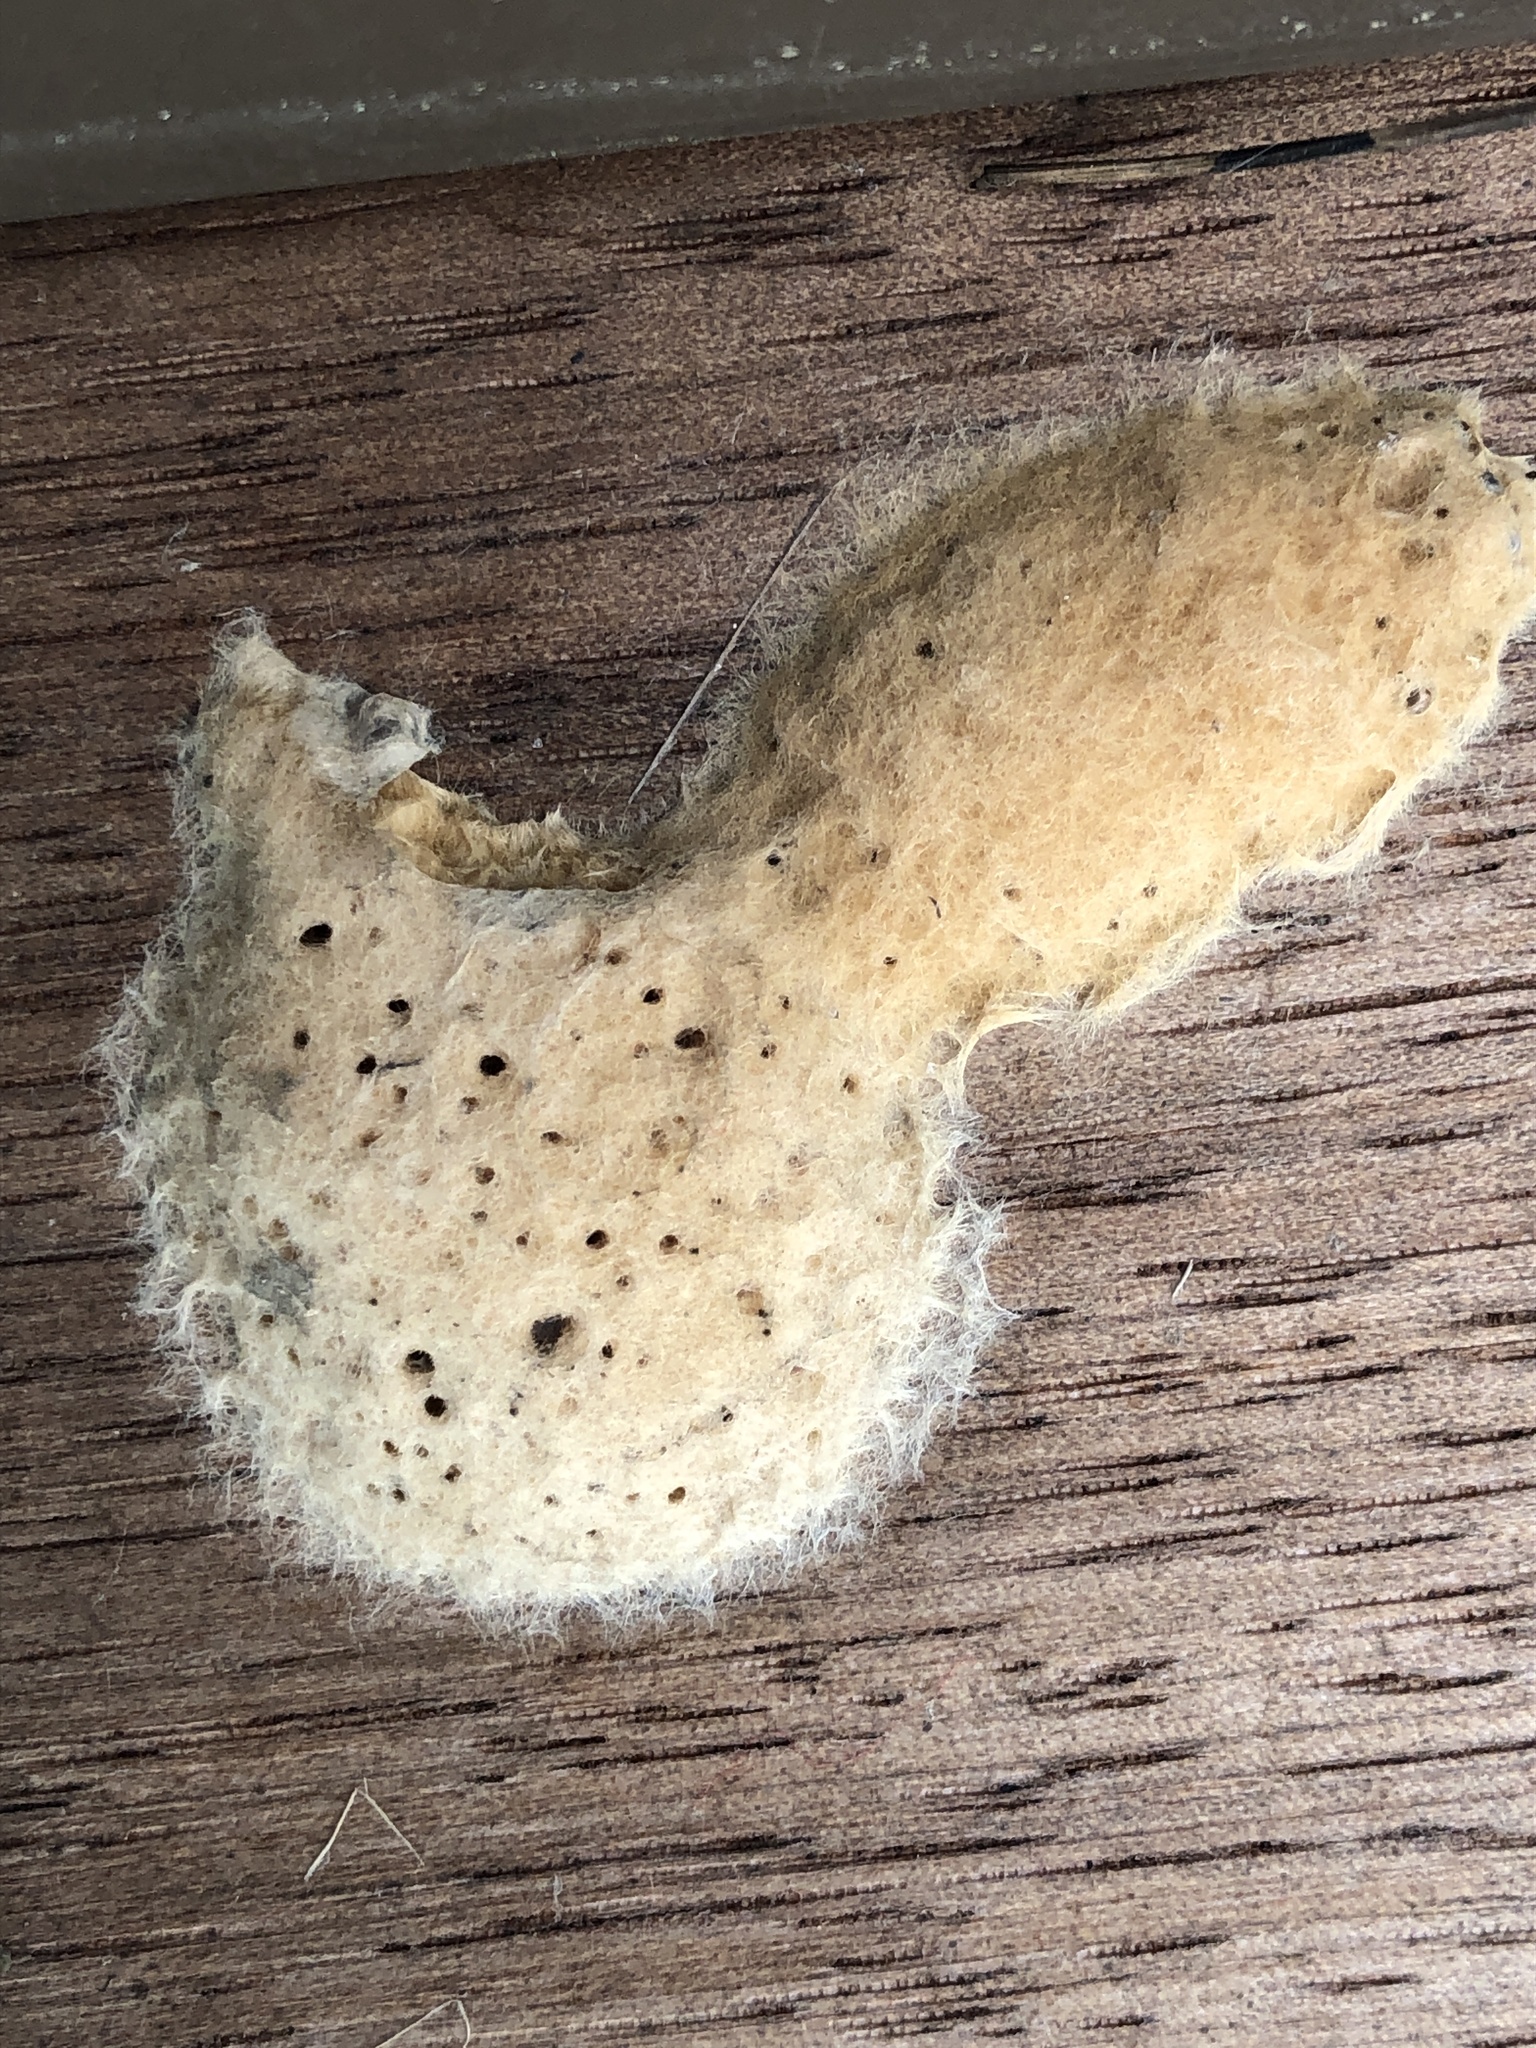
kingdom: Animalia
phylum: Arthropoda
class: Insecta
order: Lepidoptera
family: Erebidae
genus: Lymantria
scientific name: Lymantria dispar
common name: Gypsy moth
